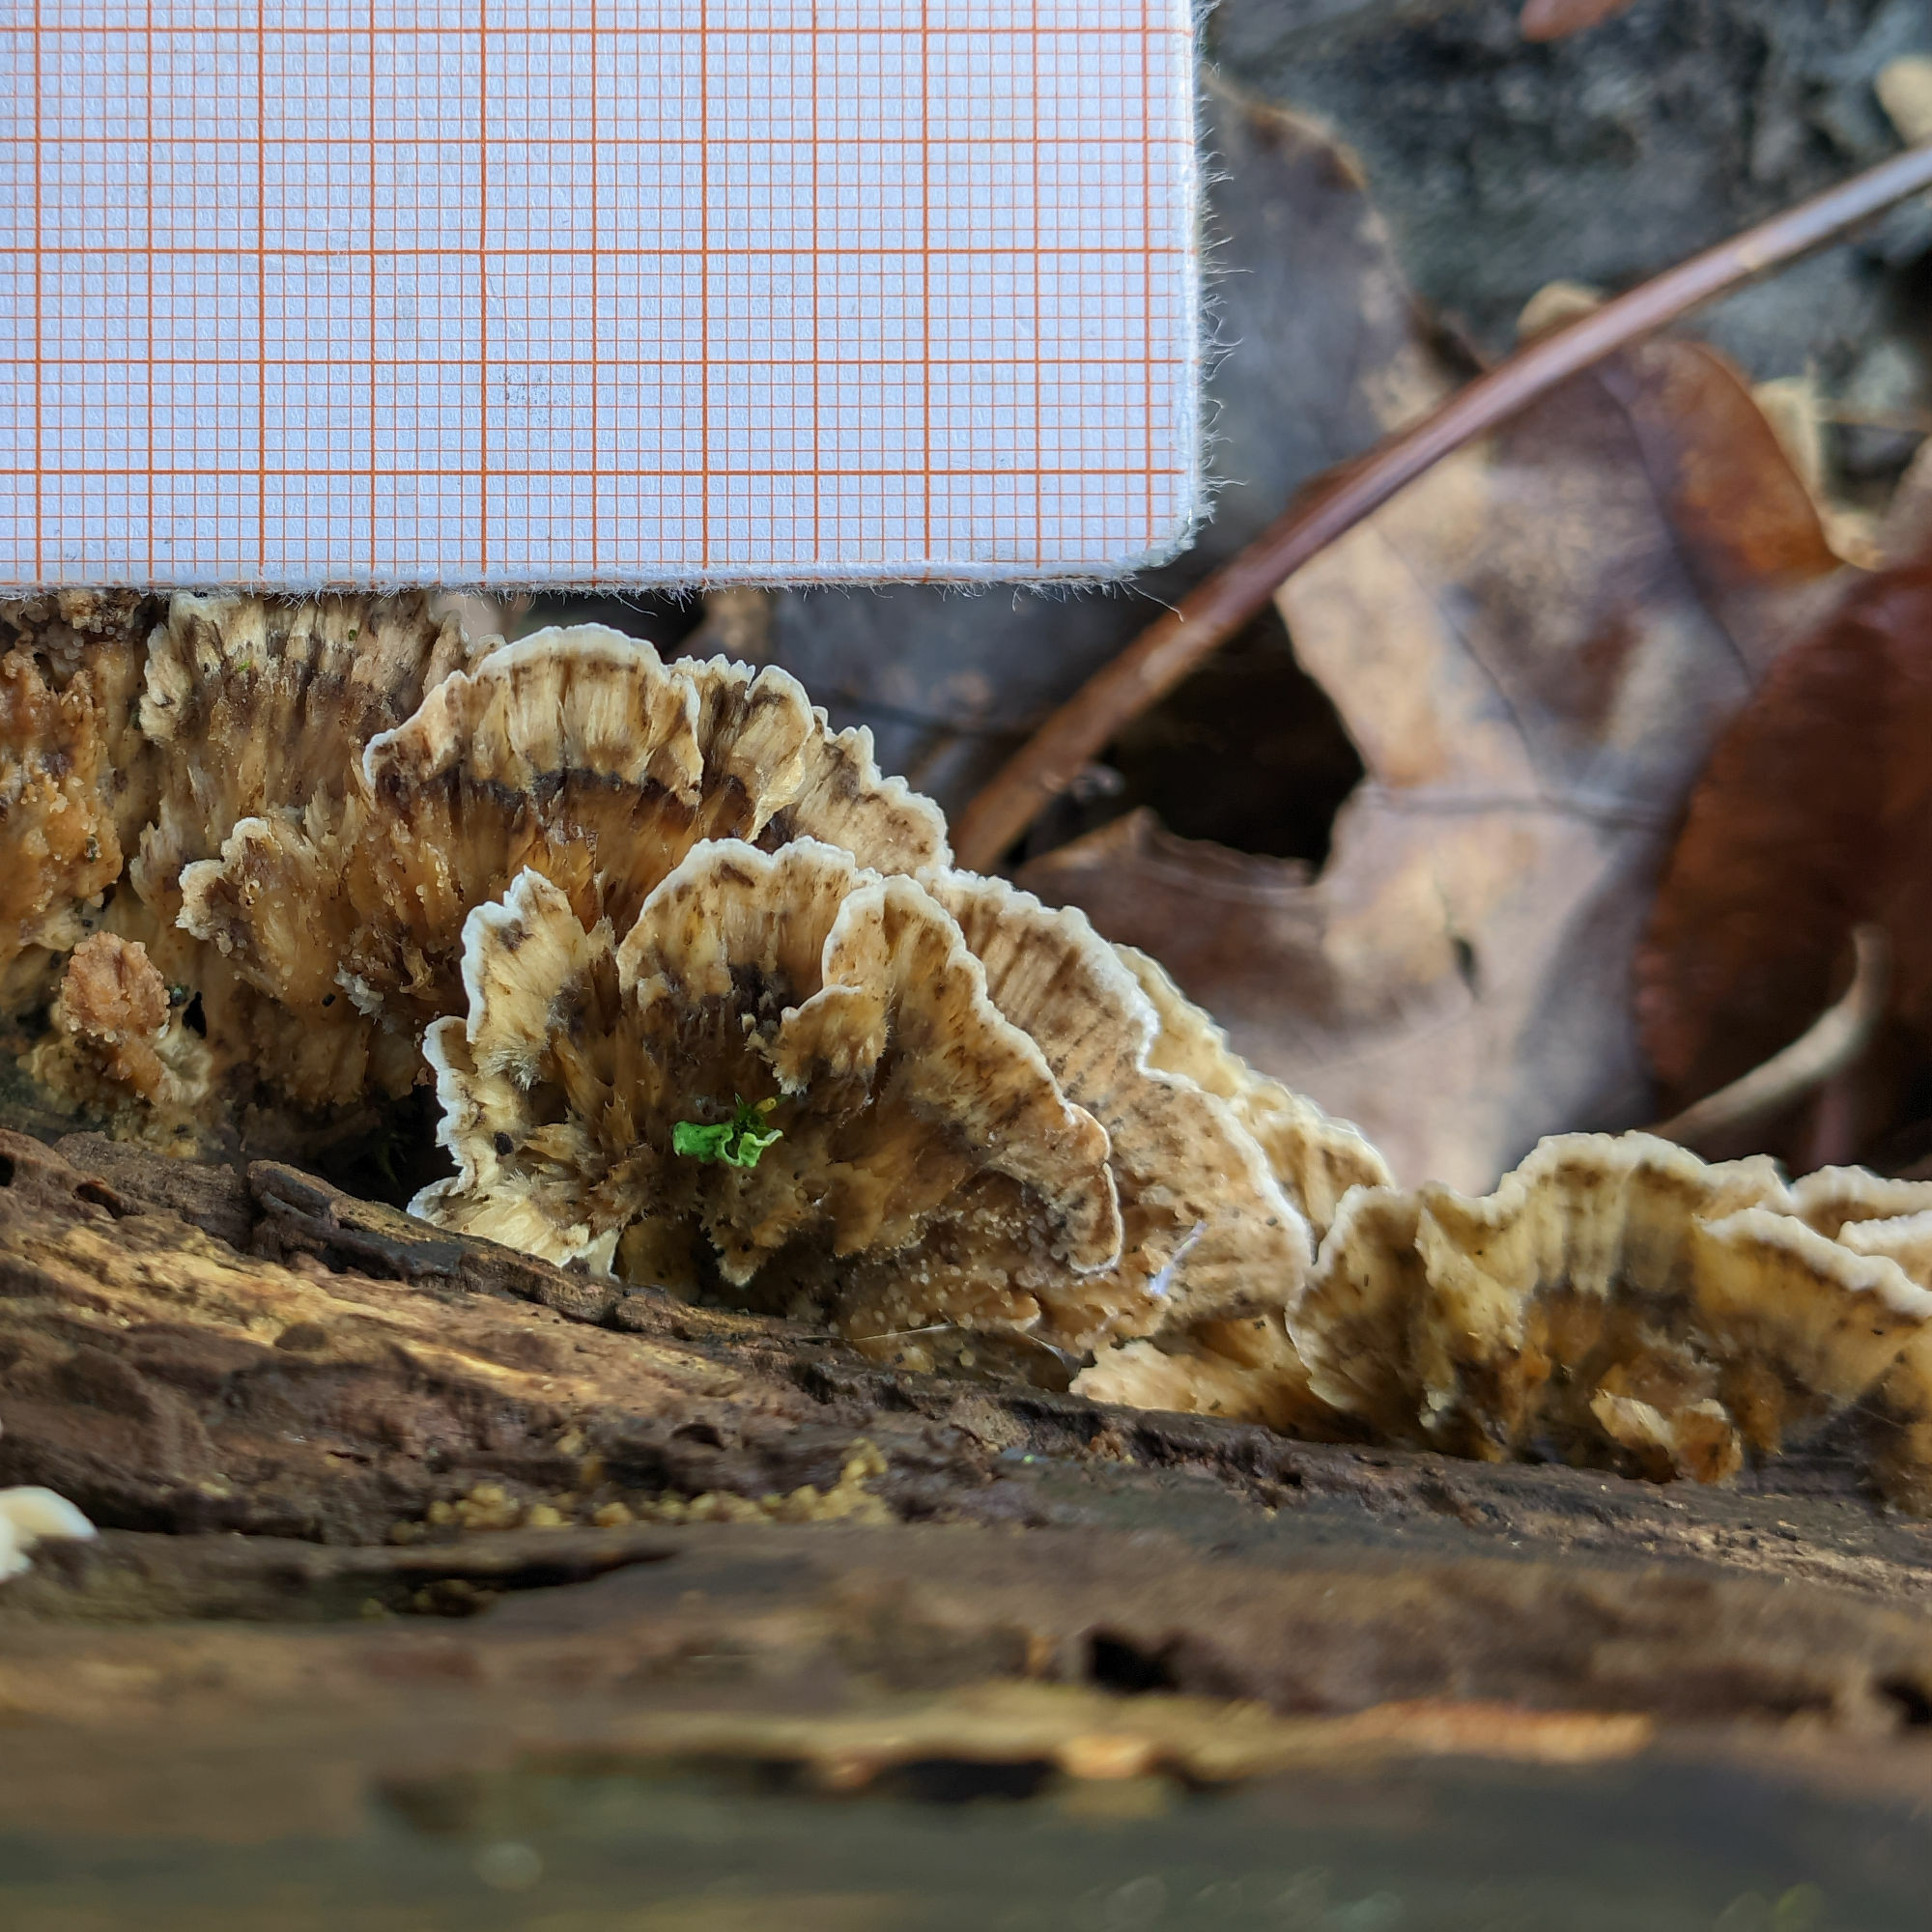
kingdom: Fungi
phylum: Basidiomycota
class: Agaricomycetes
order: Polyporales
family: Phanerochaetaceae
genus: Bjerkandera
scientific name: Bjerkandera adusta
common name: Smoky bracket
